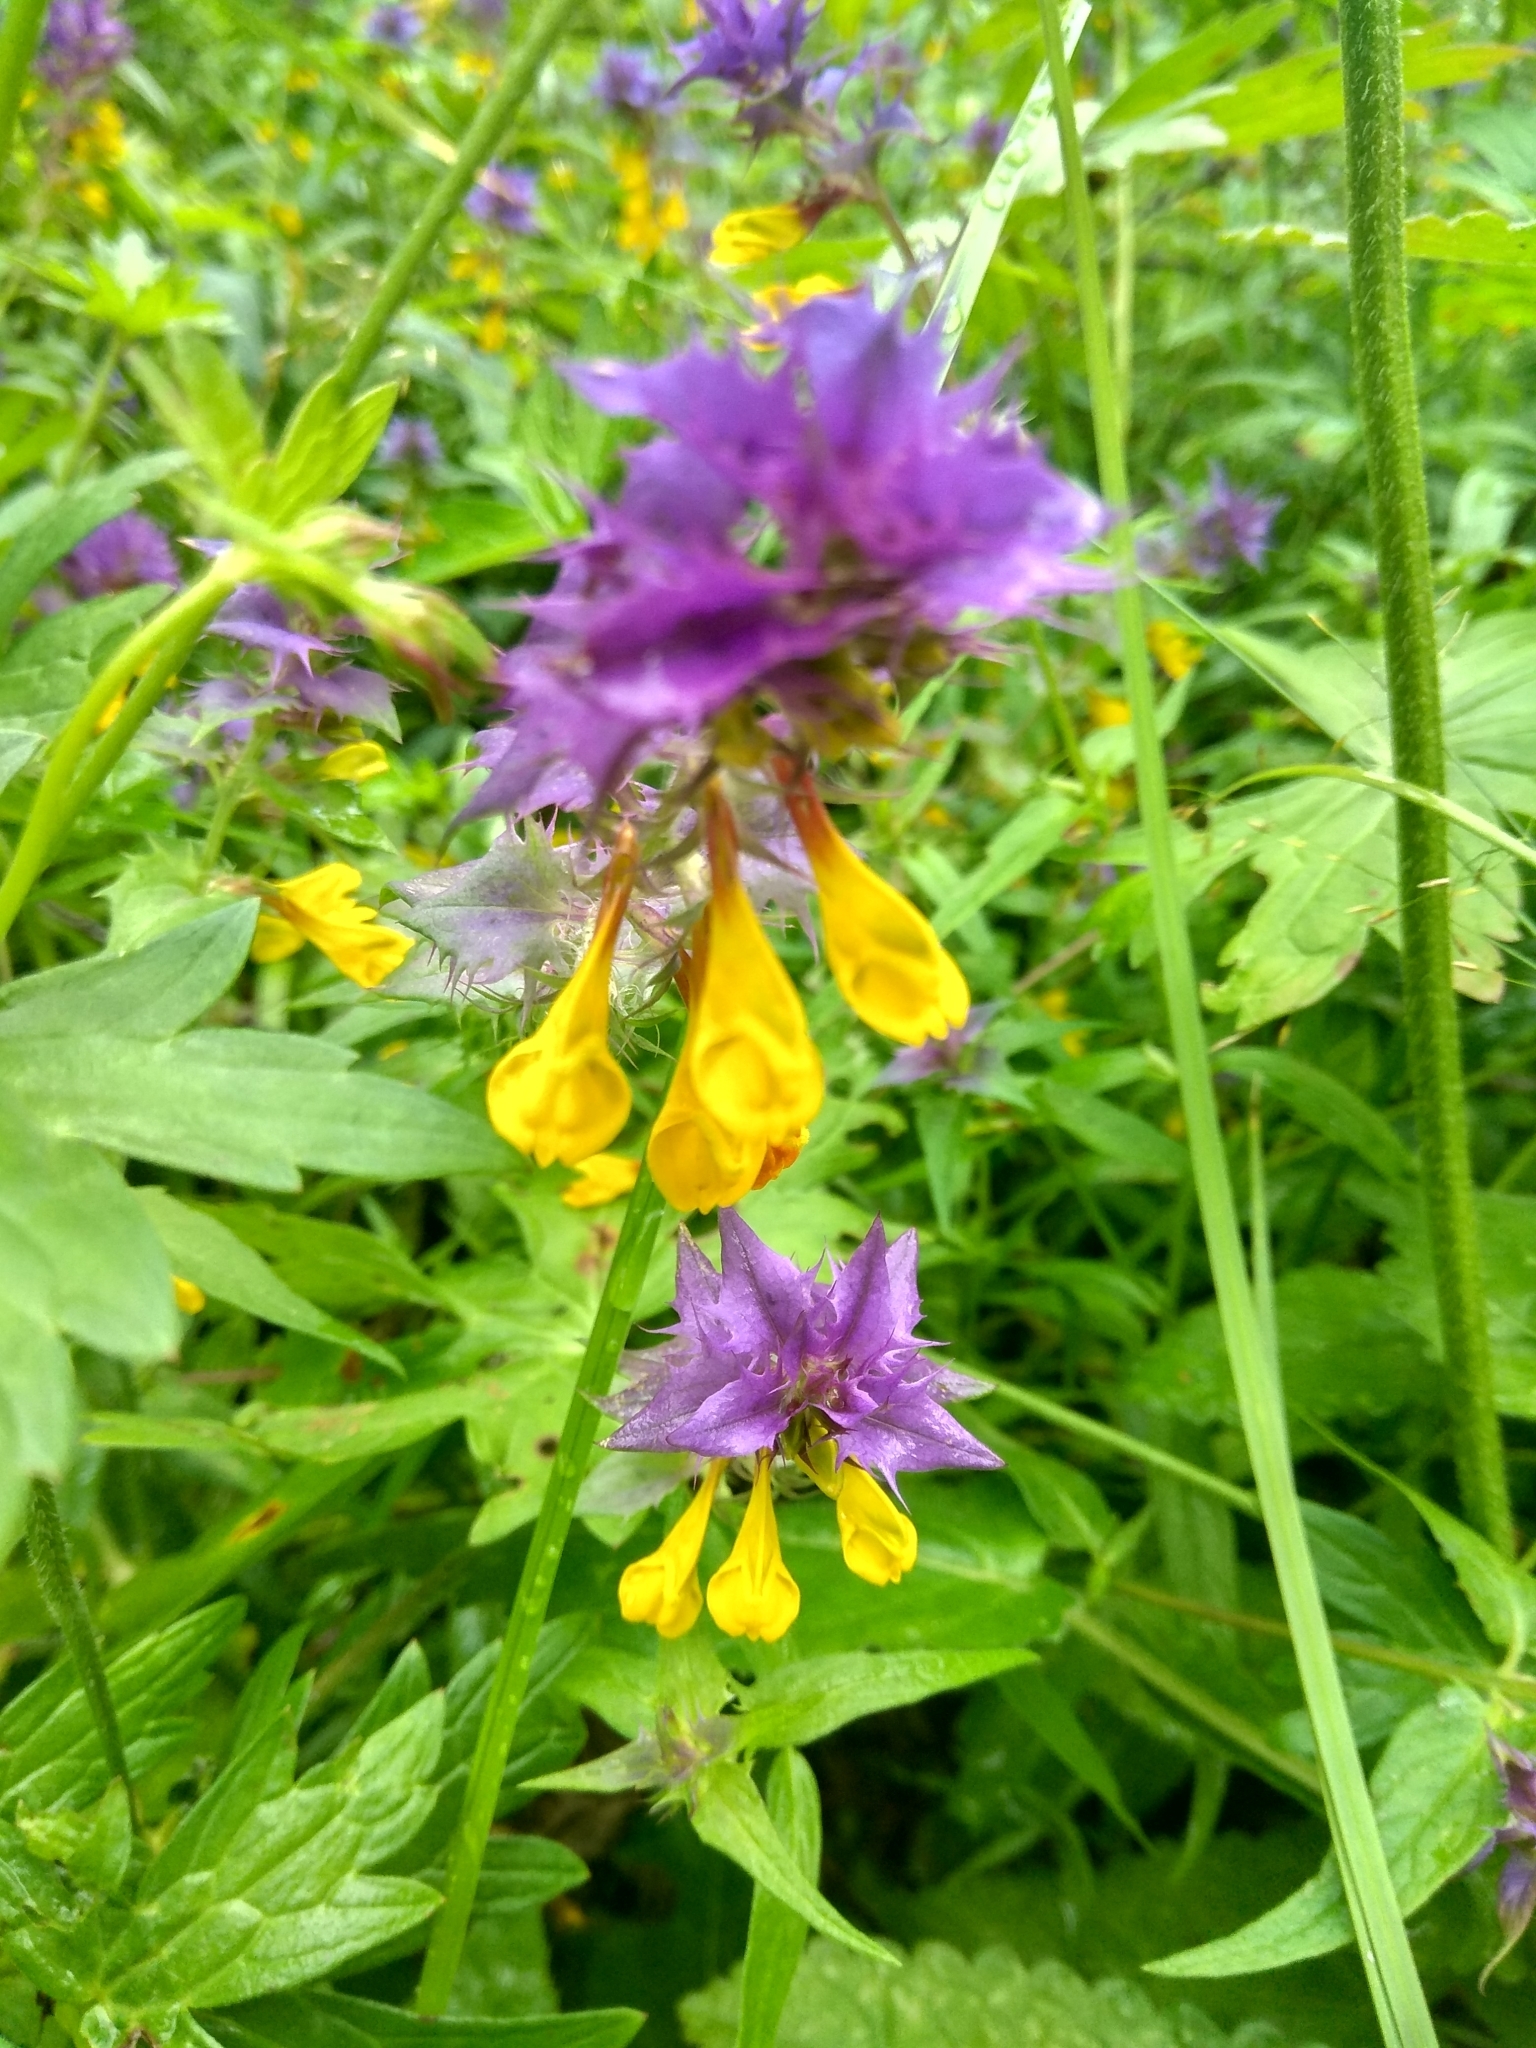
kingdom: Plantae
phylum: Tracheophyta
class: Magnoliopsida
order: Lamiales
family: Orobanchaceae
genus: Melampyrum
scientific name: Melampyrum nemorosum
